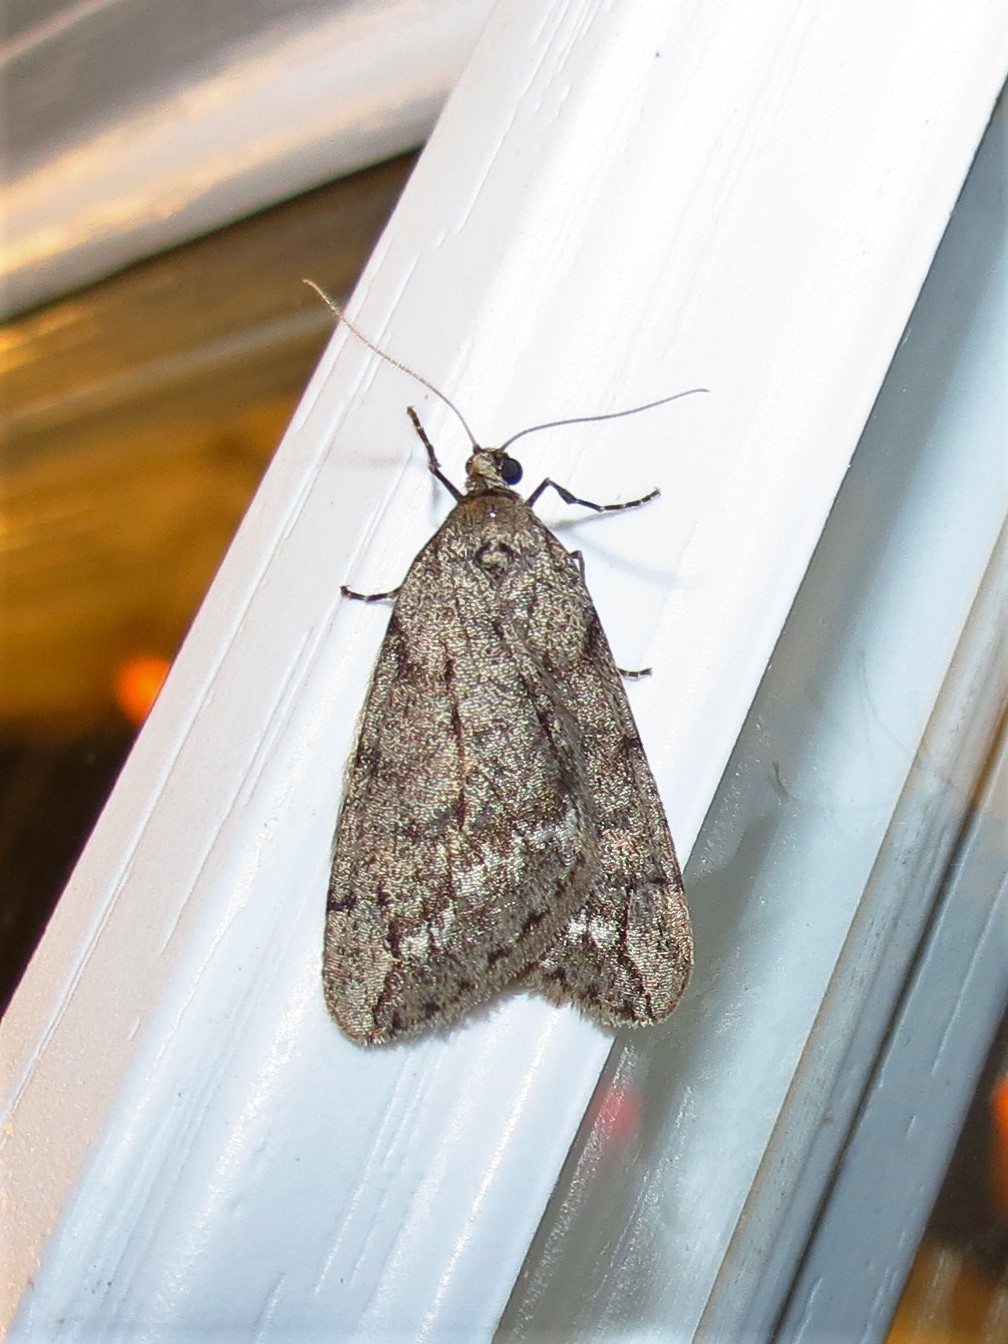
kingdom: Animalia
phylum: Arthropoda
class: Insecta
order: Lepidoptera
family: Geometridae
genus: Paleacrita
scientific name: Paleacrita vernata
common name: Spring cankerworm
